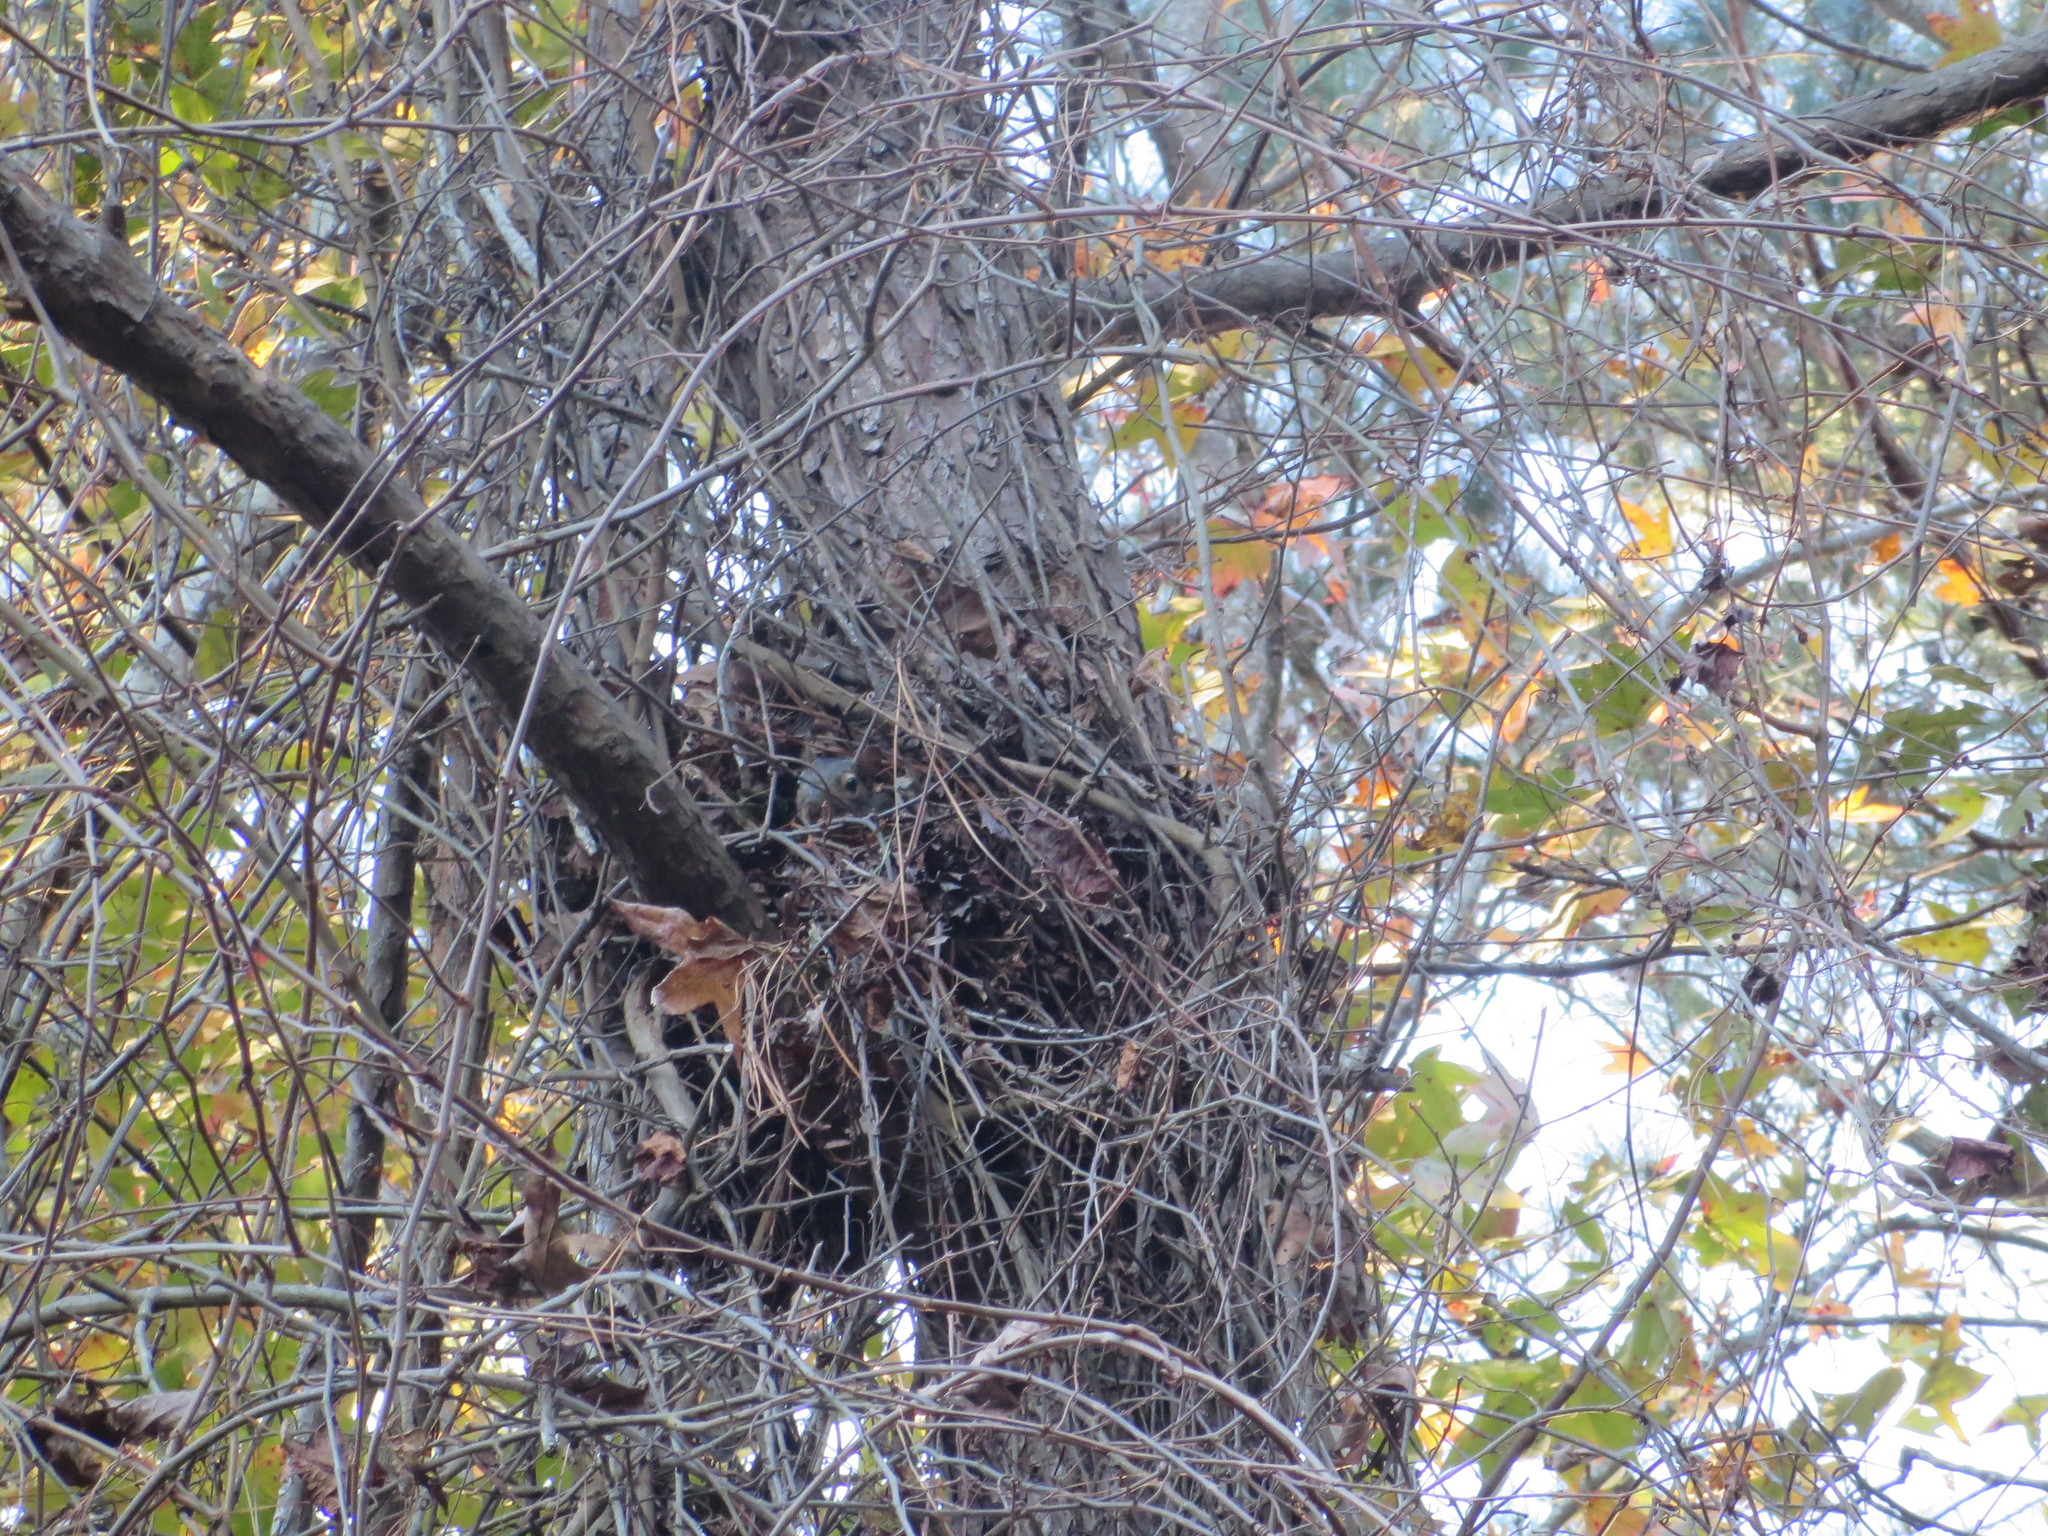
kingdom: Animalia
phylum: Chordata
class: Mammalia
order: Rodentia
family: Sciuridae
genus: Sciurus
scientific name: Sciurus carolinensis
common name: Eastern gray squirrel
